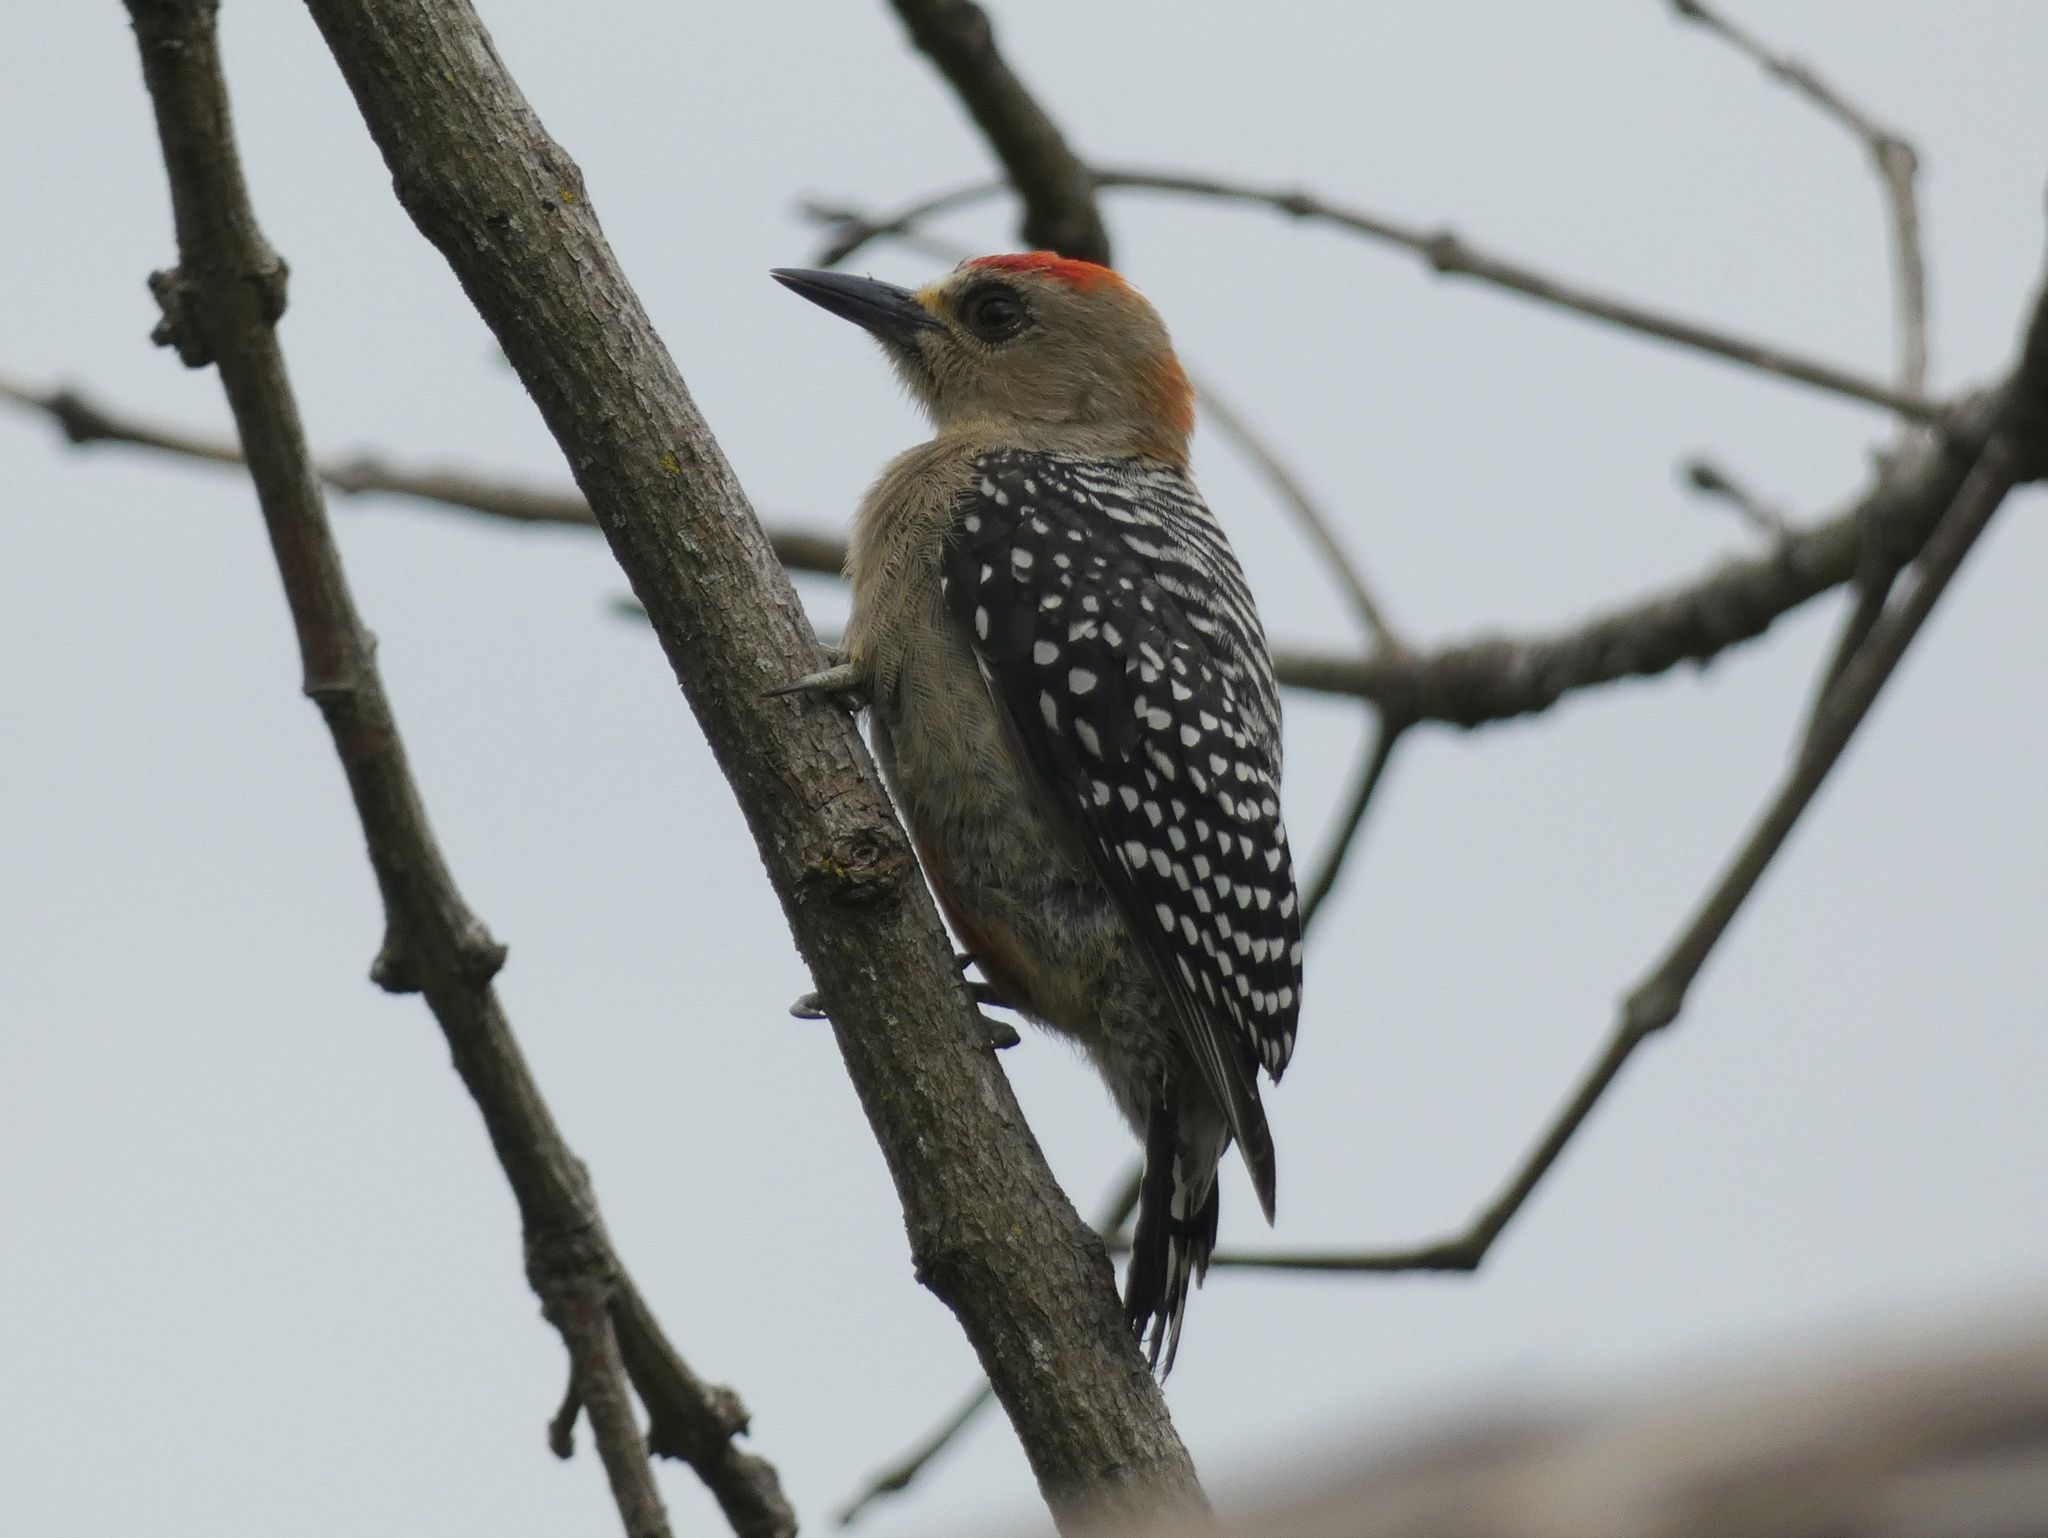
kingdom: Animalia
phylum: Chordata
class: Aves
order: Piciformes
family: Picidae
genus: Melanerpes
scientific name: Melanerpes rubricapillus
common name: Red-crowned woodpecker
